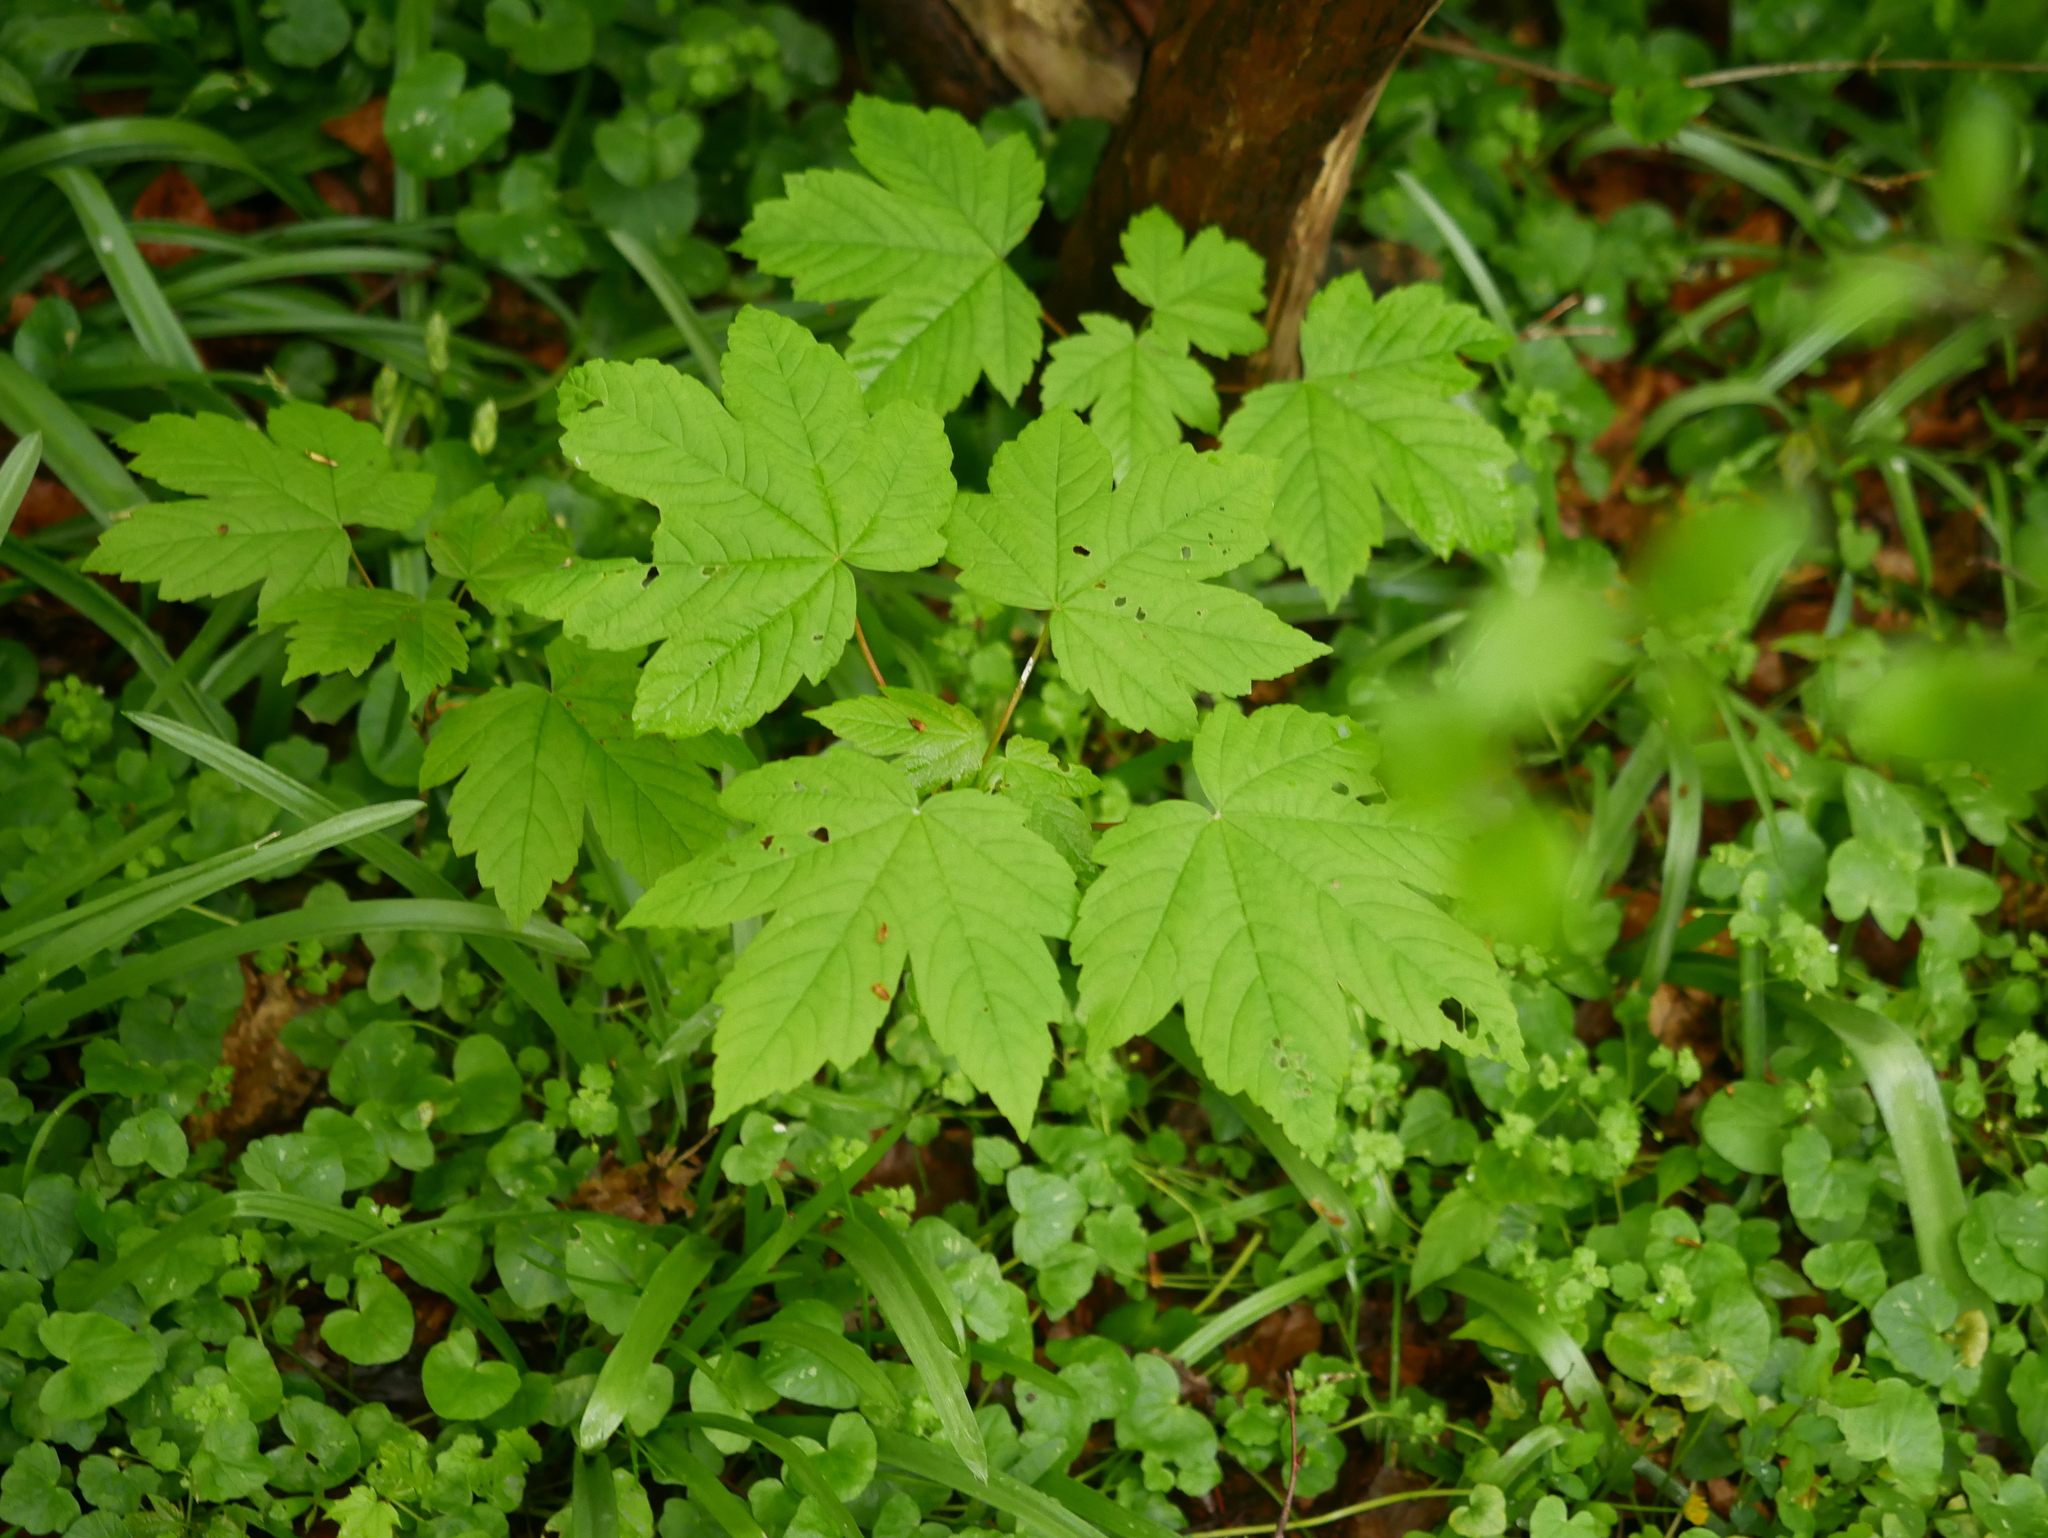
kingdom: Plantae
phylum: Tracheophyta
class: Magnoliopsida
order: Sapindales
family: Sapindaceae
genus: Acer
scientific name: Acer pseudoplatanus
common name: Sycamore
